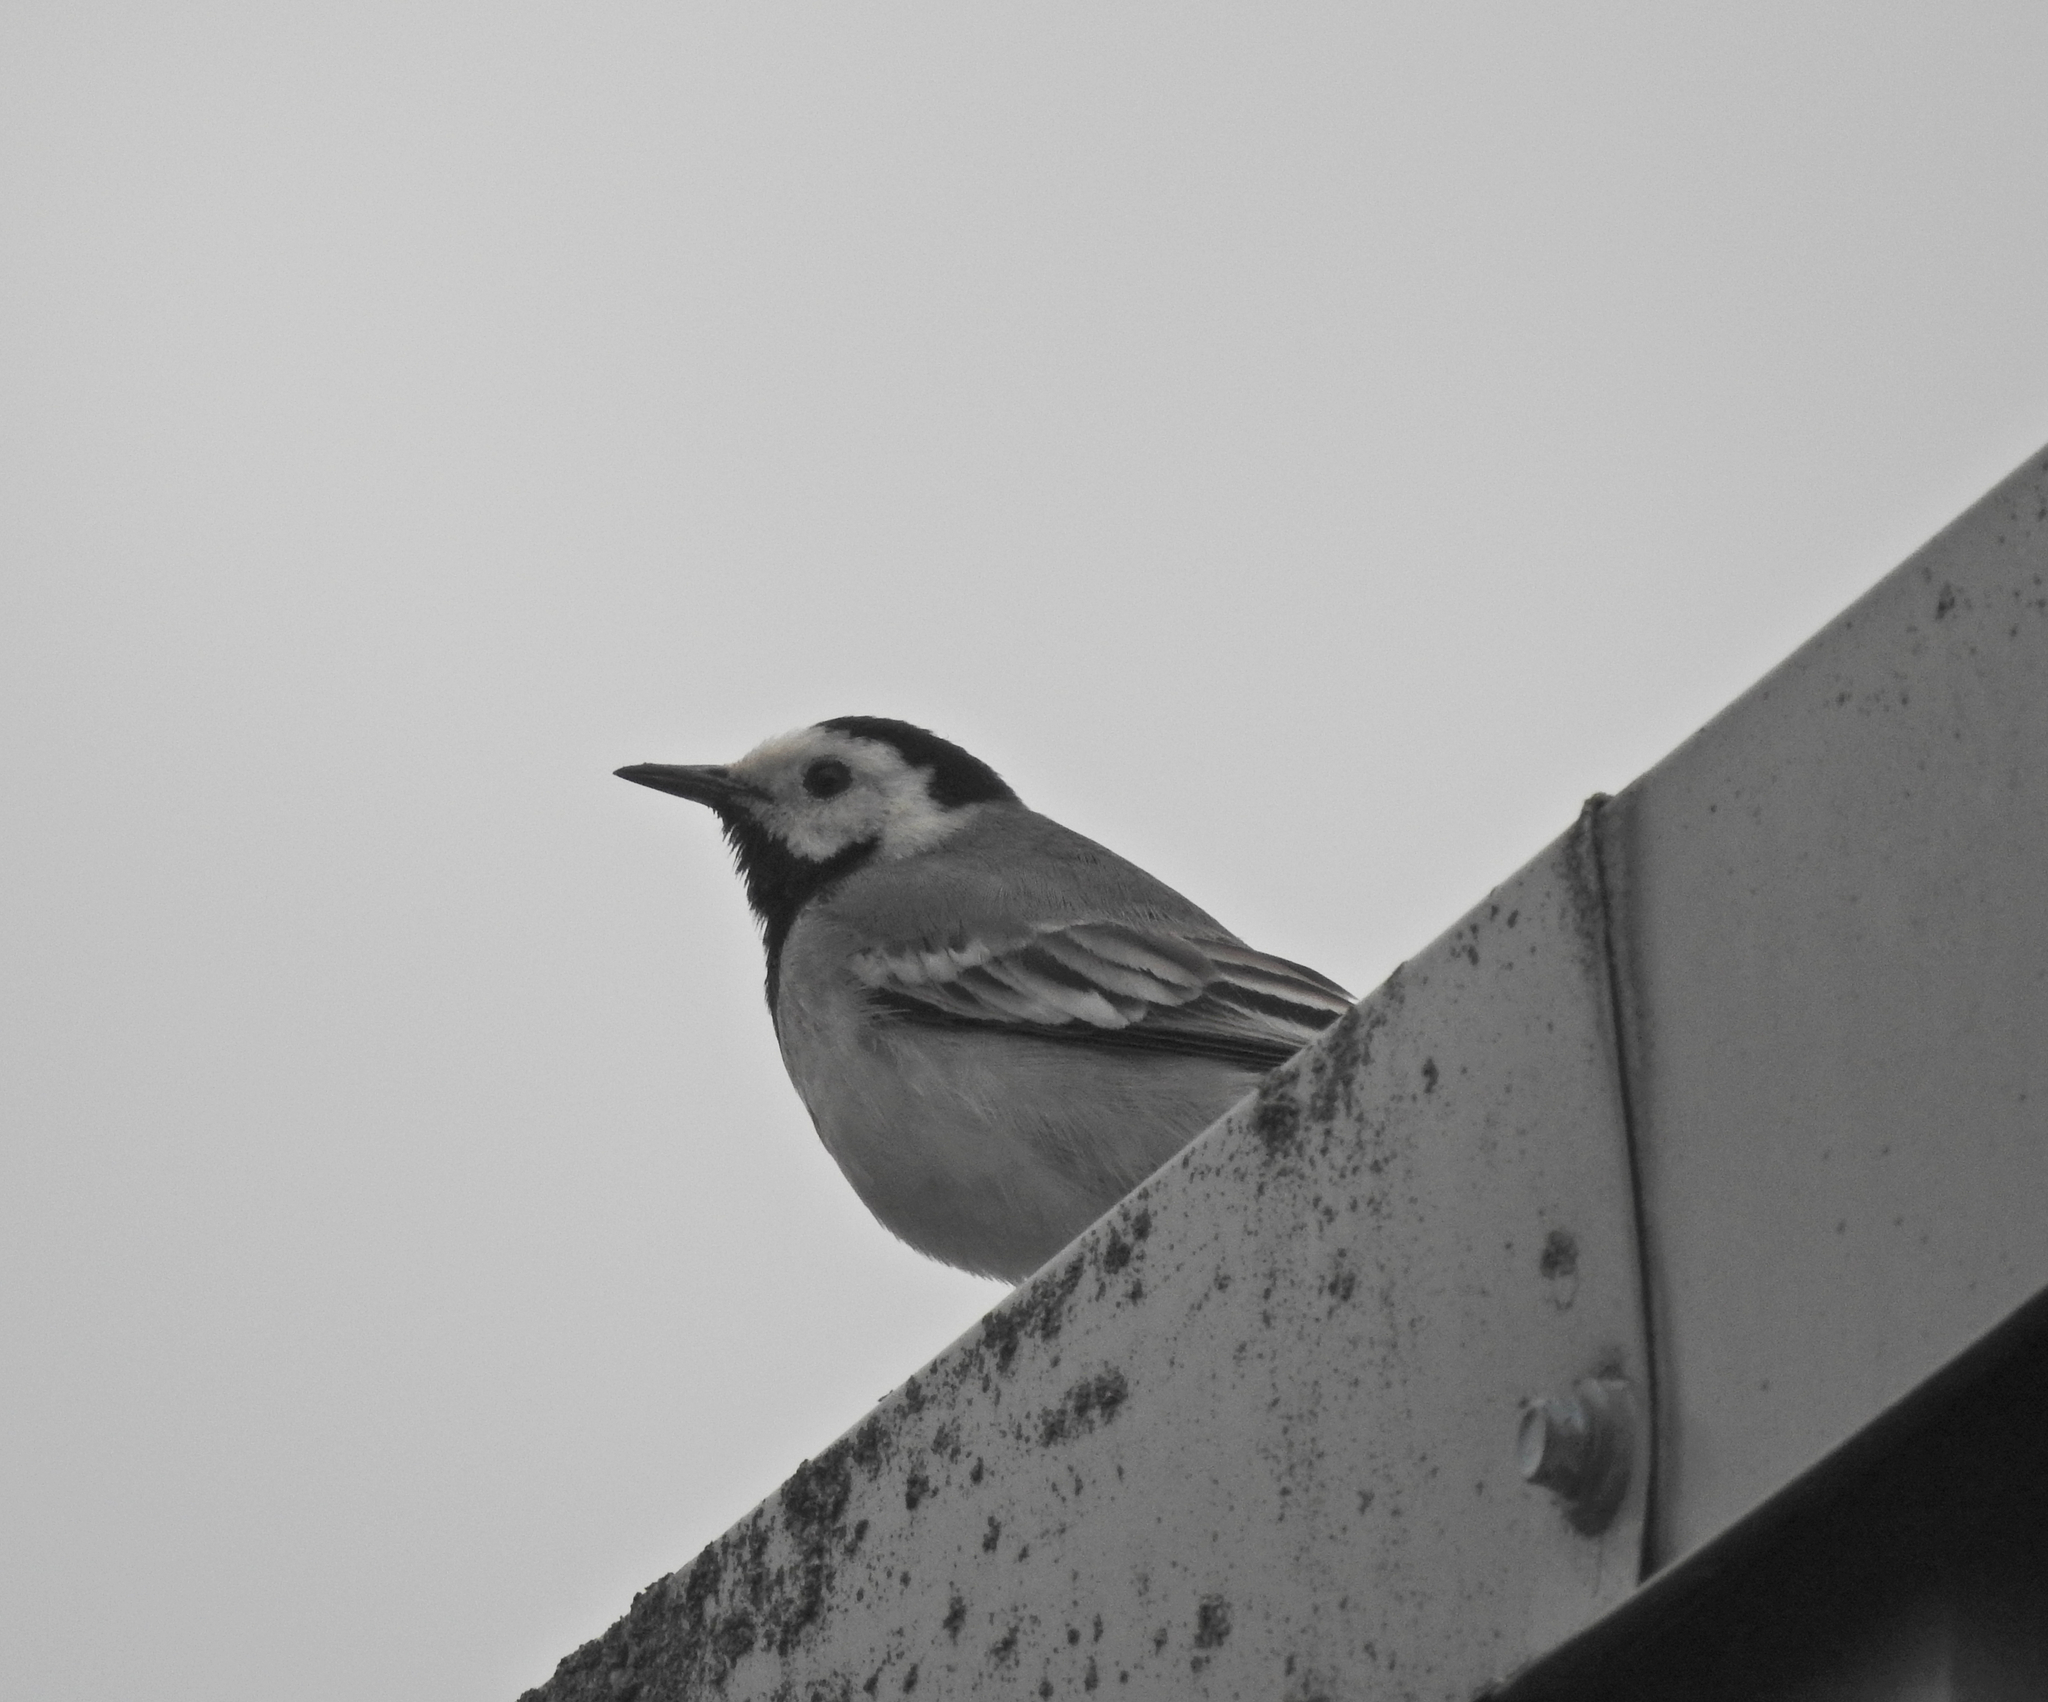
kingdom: Animalia
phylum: Chordata
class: Aves
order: Passeriformes
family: Motacillidae
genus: Motacilla
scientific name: Motacilla alba
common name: White wagtail
